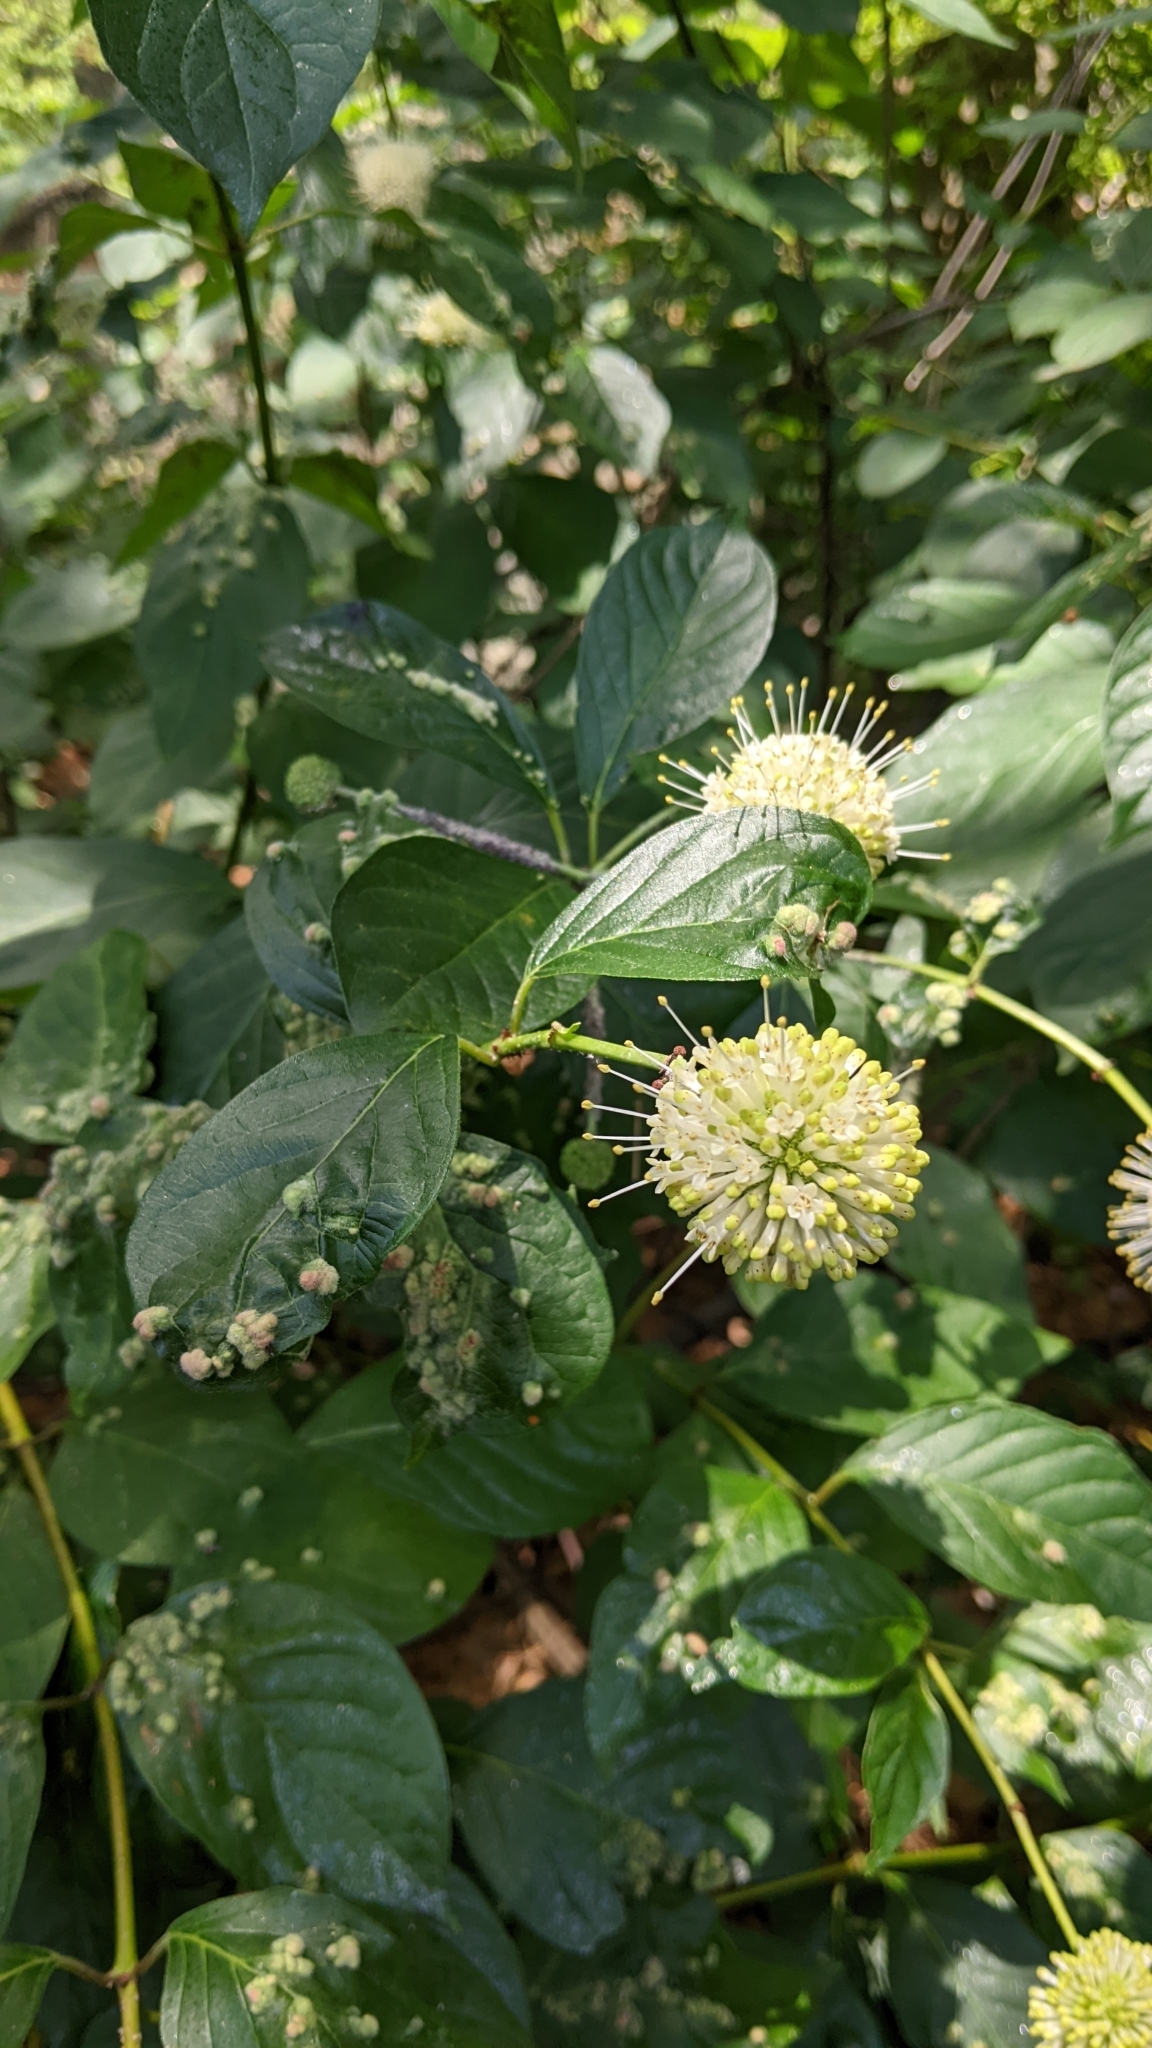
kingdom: Plantae
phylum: Tracheophyta
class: Magnoliopsida
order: Gentianales
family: Rubiaceae
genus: Cephalanthus
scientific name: Cephalanthus occidentalis
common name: Button-willow
